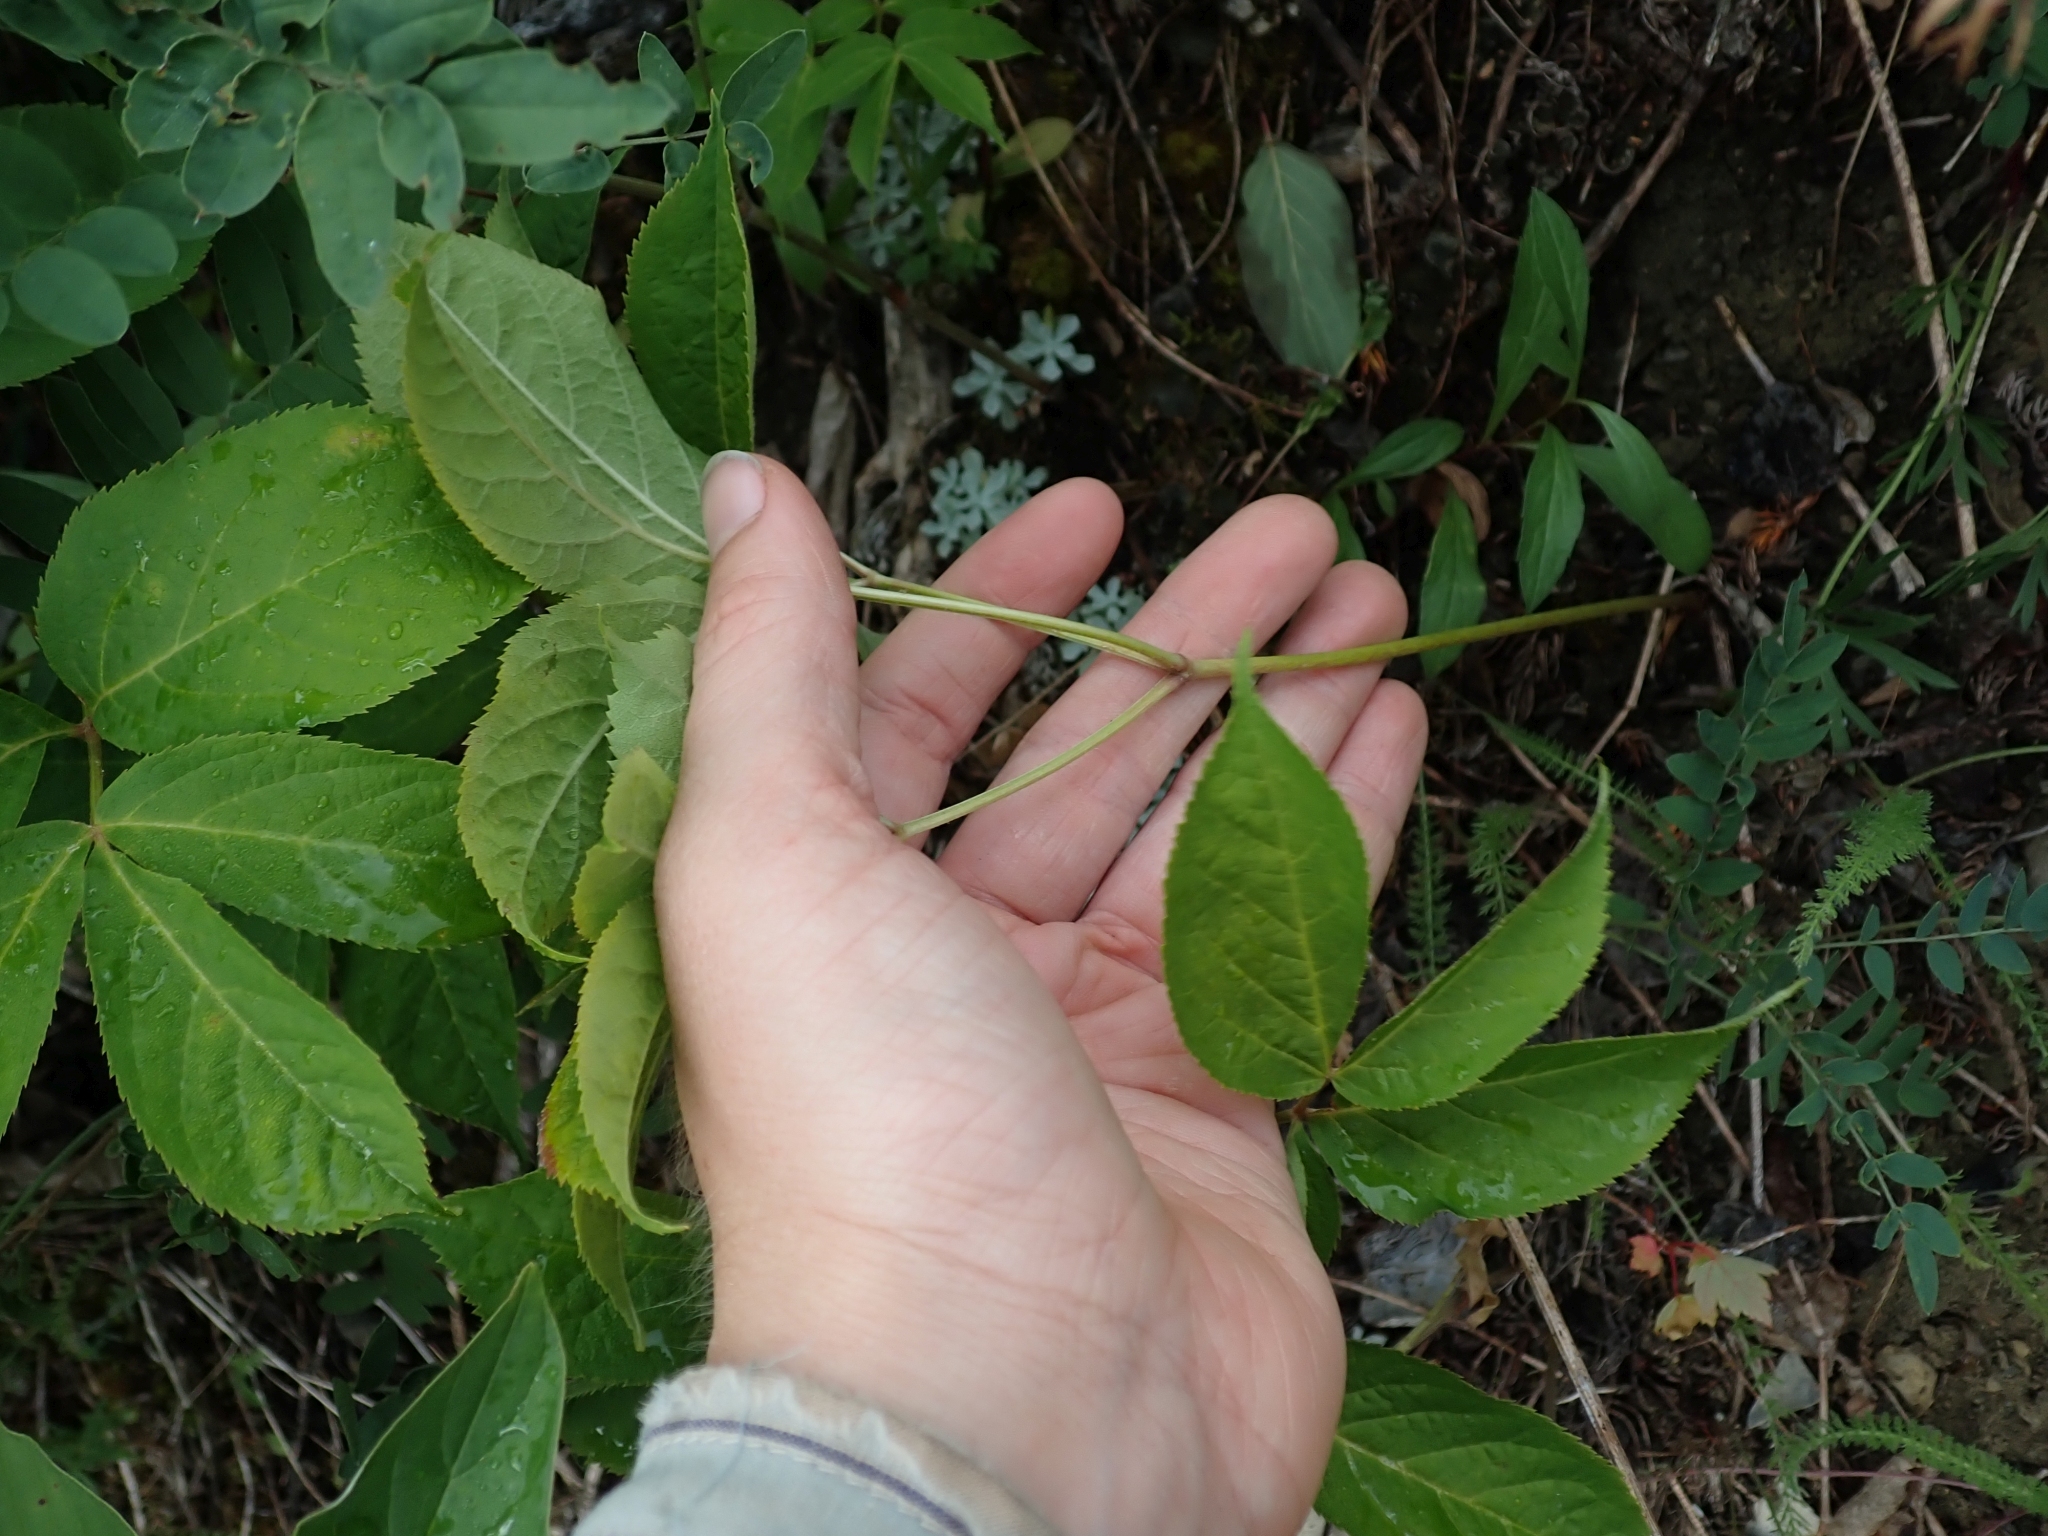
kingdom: Plantae
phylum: Tracheophyta
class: Magnoliopsida
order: Apiales
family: Araliaceae
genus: Aralia
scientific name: Aralia nudicaulis
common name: Wild sarsaparilla
